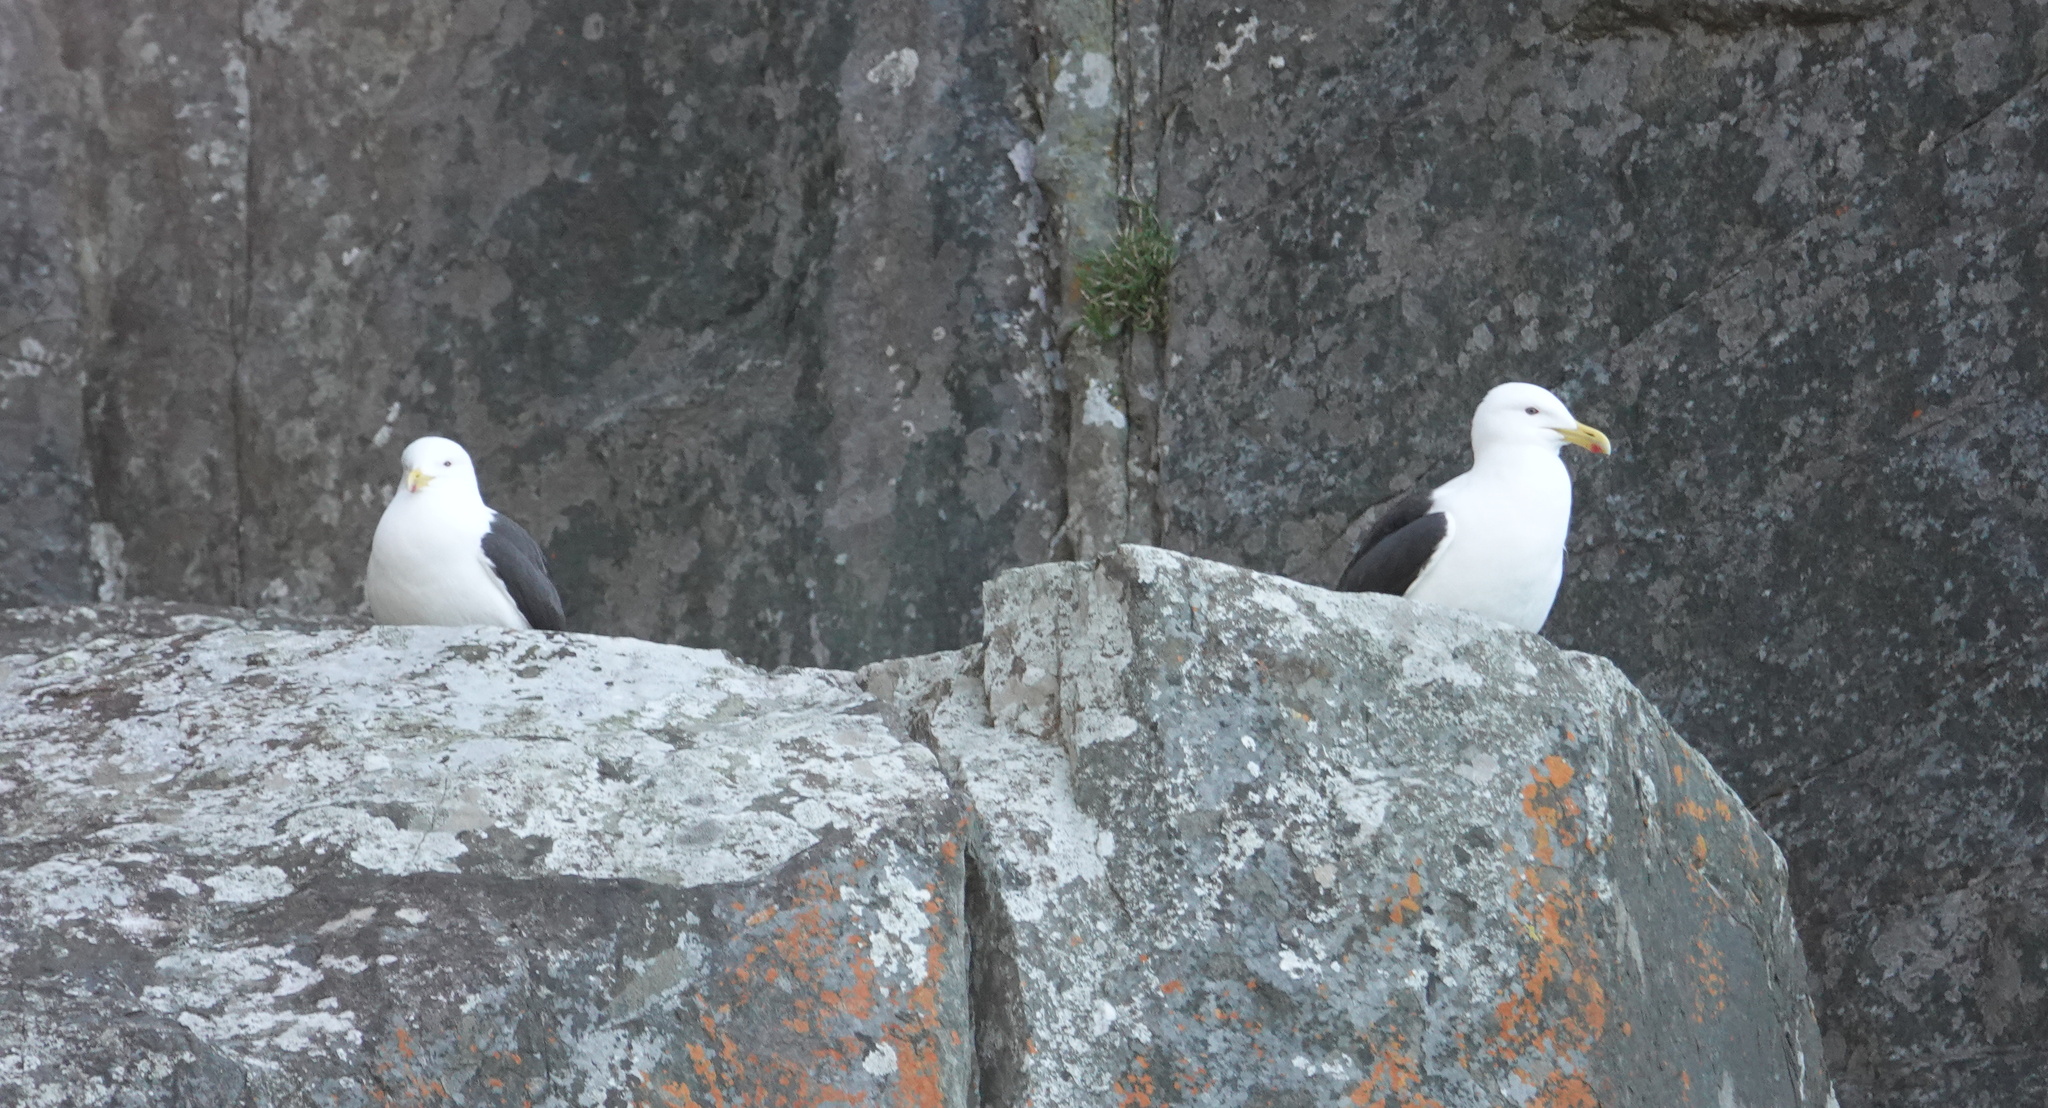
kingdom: Animalia
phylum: Chordata
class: Aves
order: Charadriiformes
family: Laridae
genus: Larus
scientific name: Larus dominicanus
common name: Kelp gull
